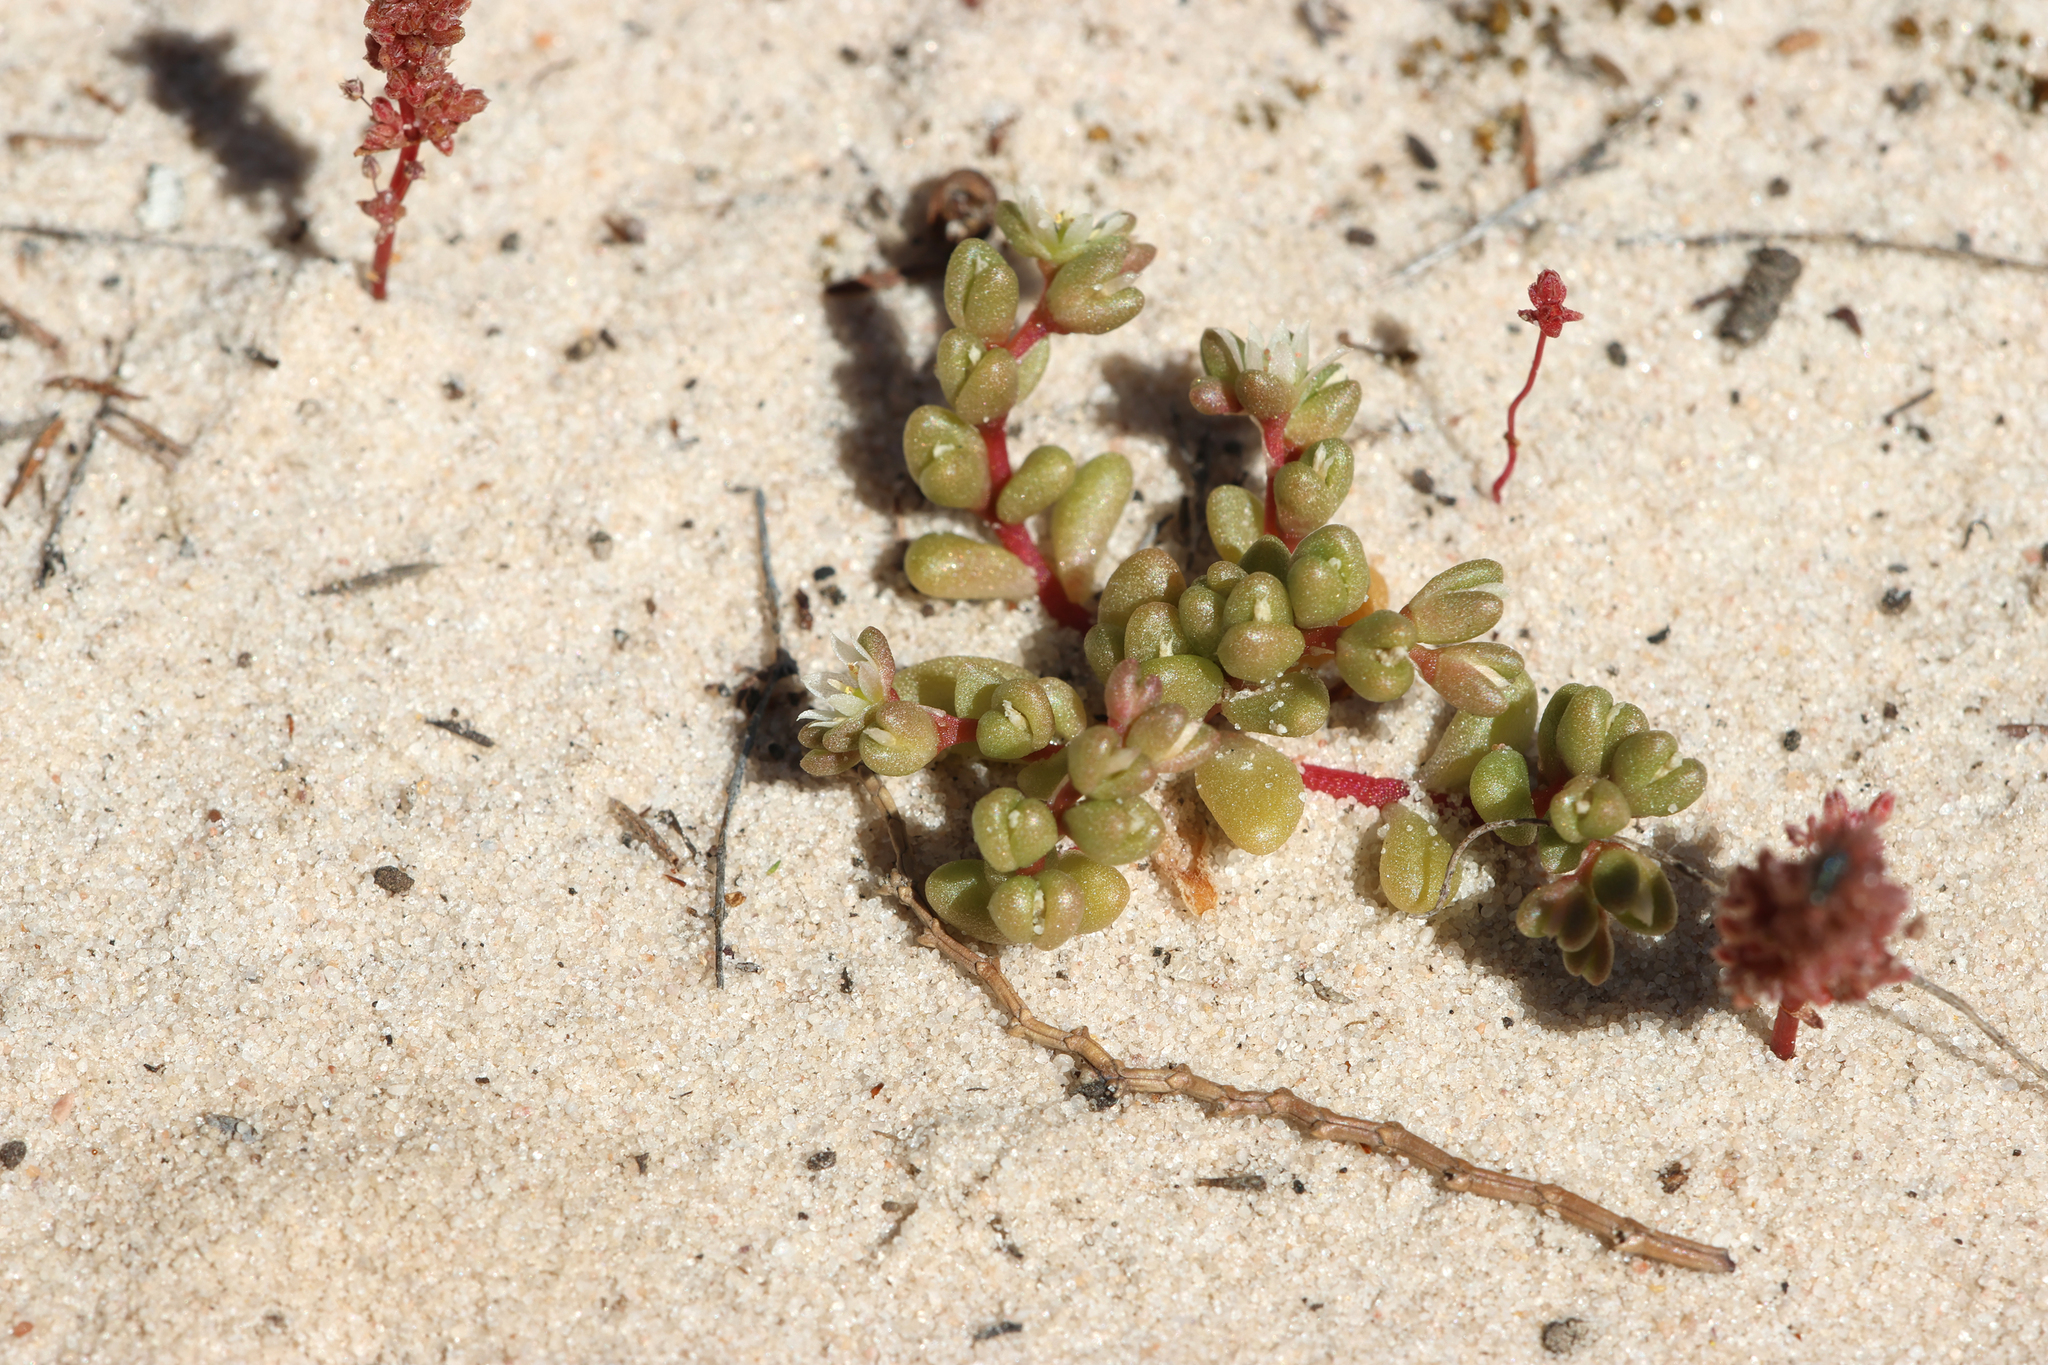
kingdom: Plantae
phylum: Tracheophyta
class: Magnoliopsida
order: Caryophyllales
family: Montiaceae
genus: Rumicastrum
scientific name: Rumicastrum granuliferum
